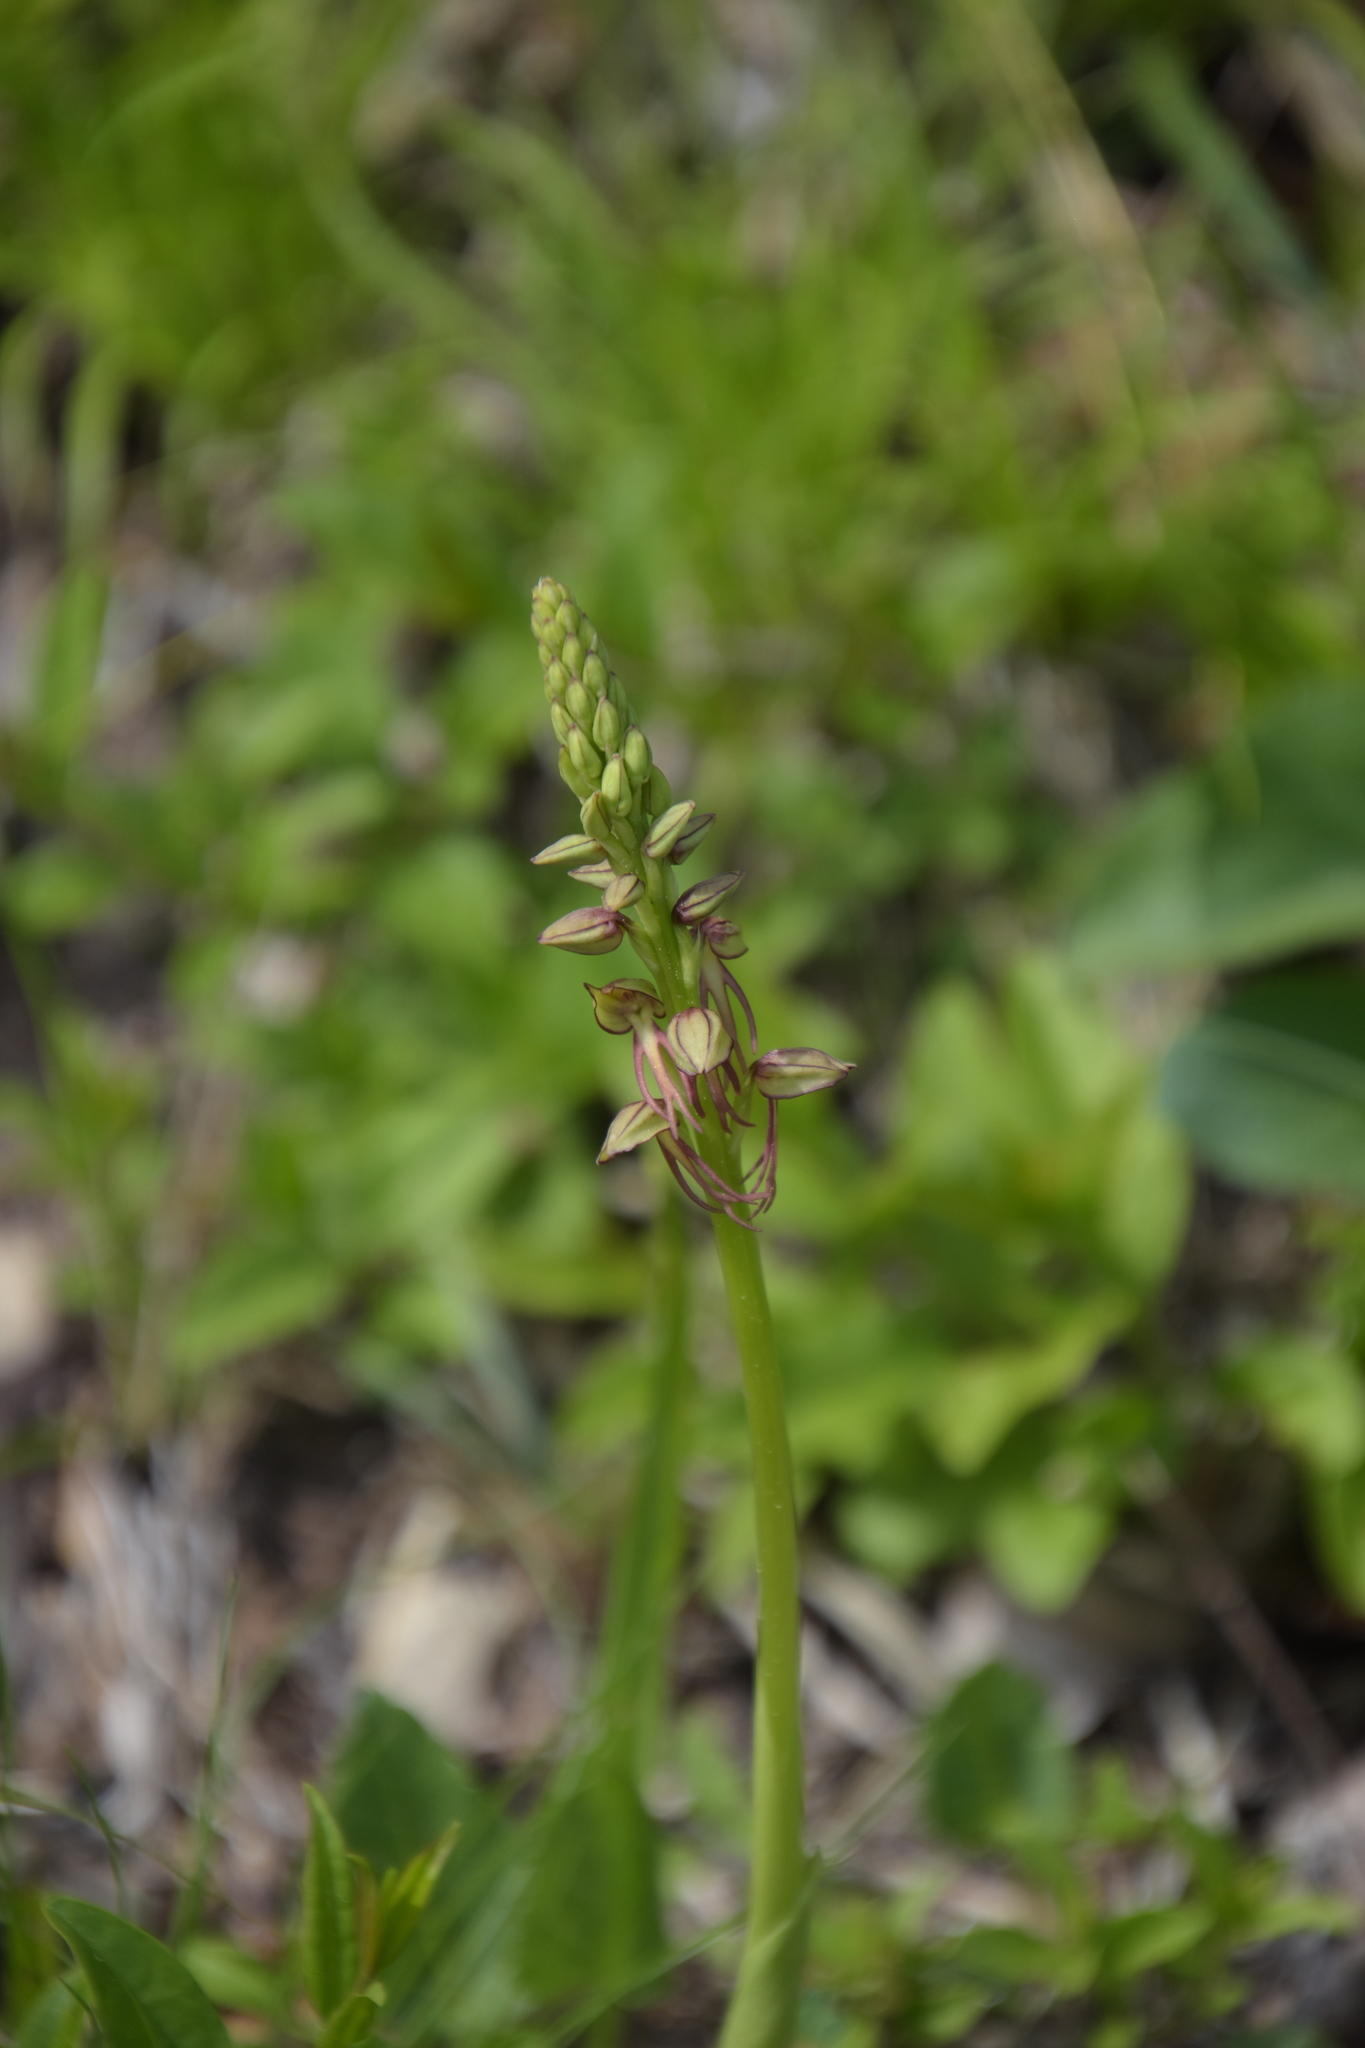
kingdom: Plantae
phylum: Tracheophyta
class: Liliopsida
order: Asparagales
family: Orchidaceae
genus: Orchis
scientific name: Orchis anthropophora
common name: Man orchid
